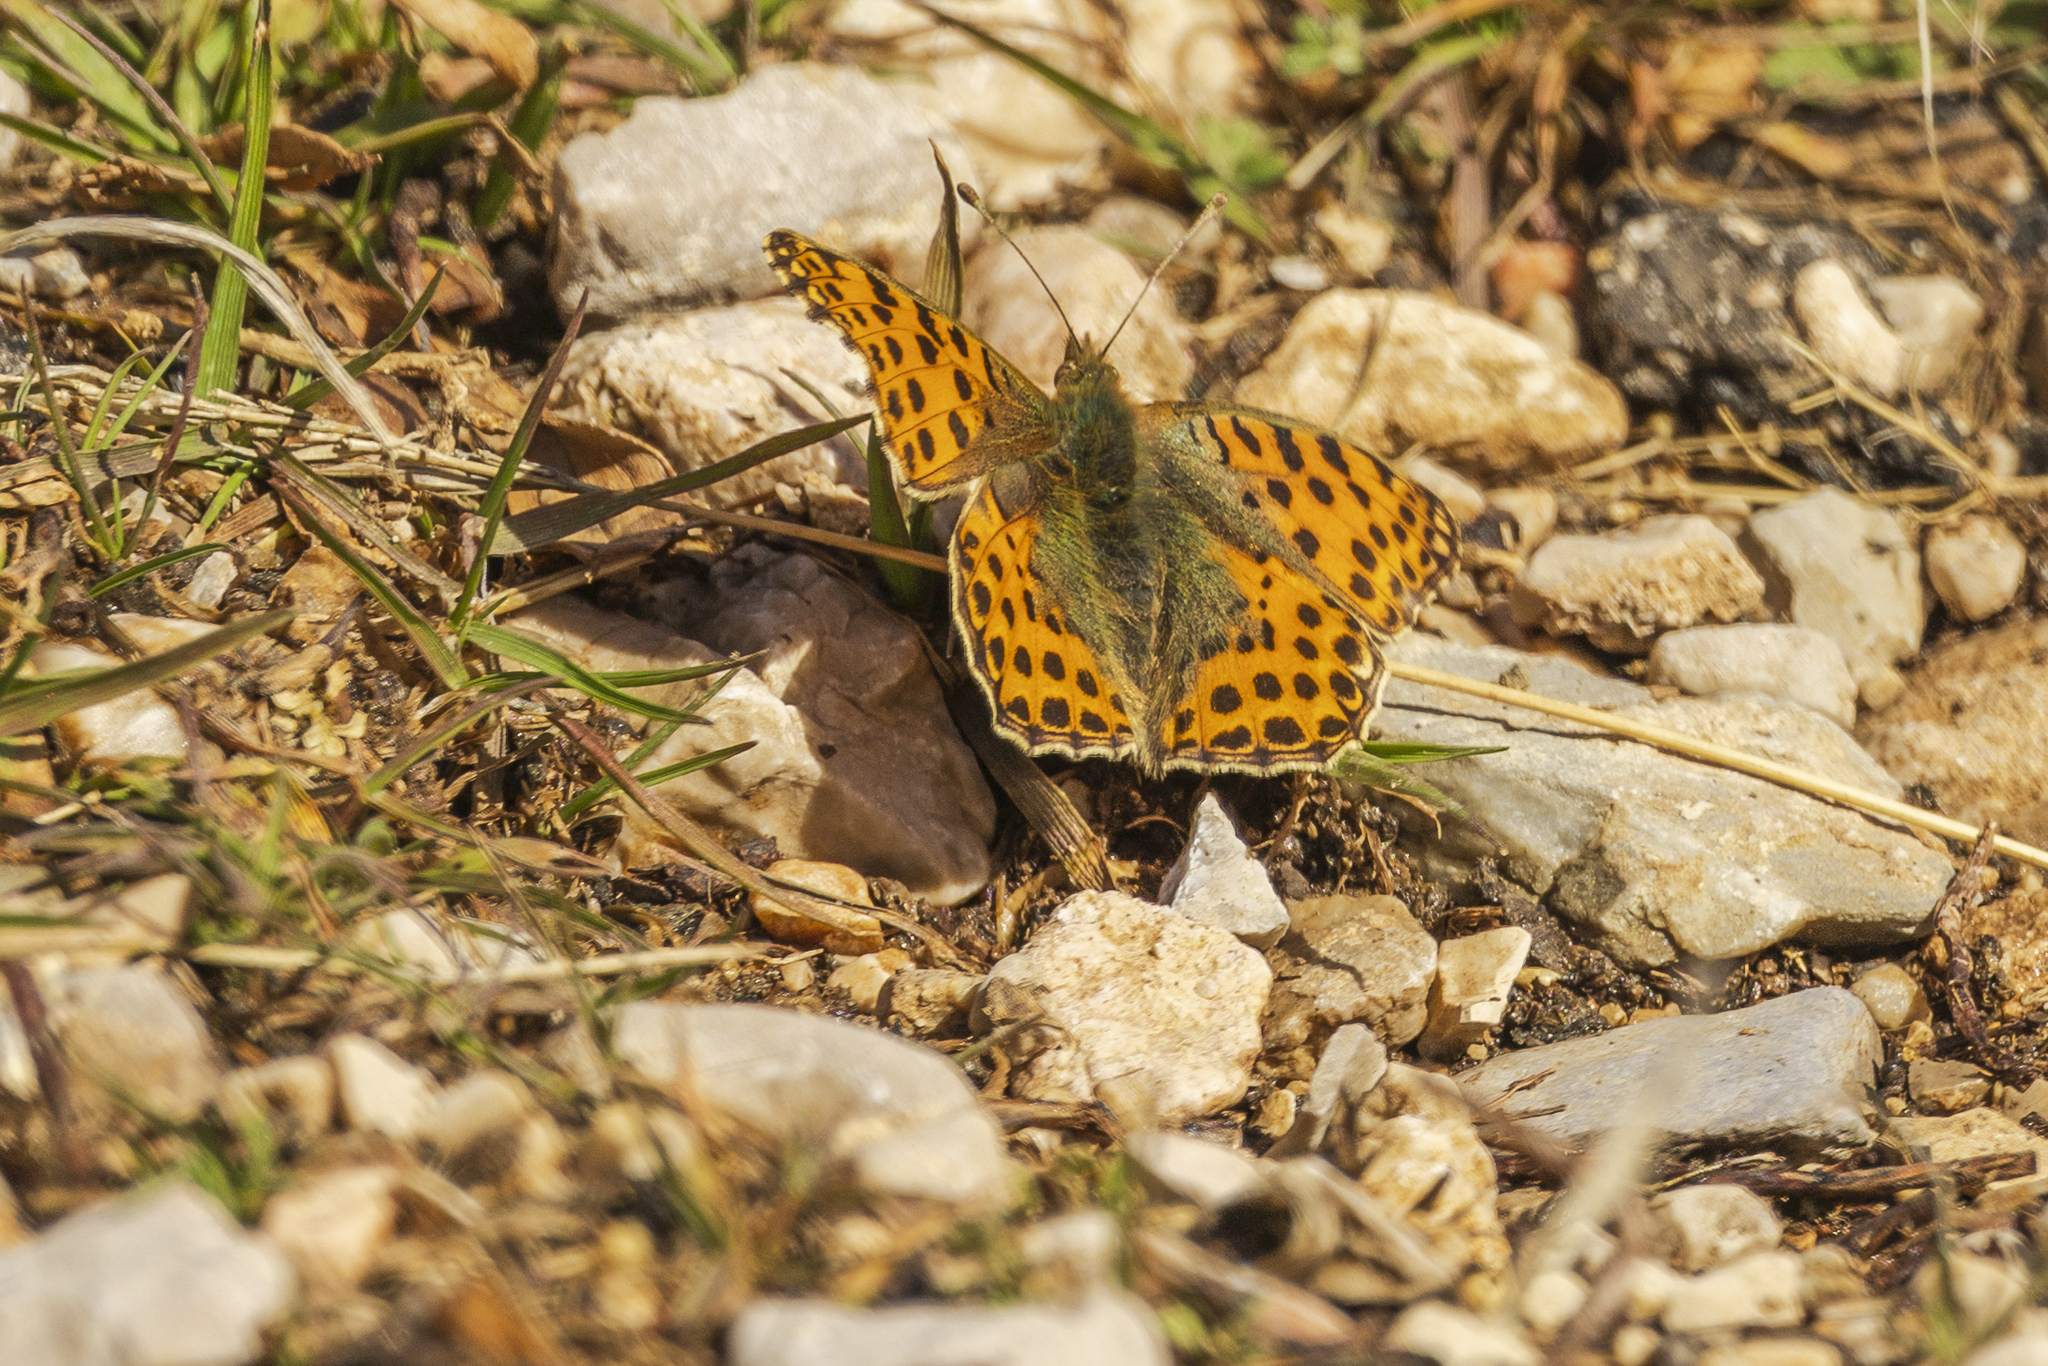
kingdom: Animalia
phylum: Arthropoda
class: Insecta
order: Lepidoptera
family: Nymphalidae
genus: Issoria
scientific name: Issoria lathonia
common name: Queen of spain fritillary
